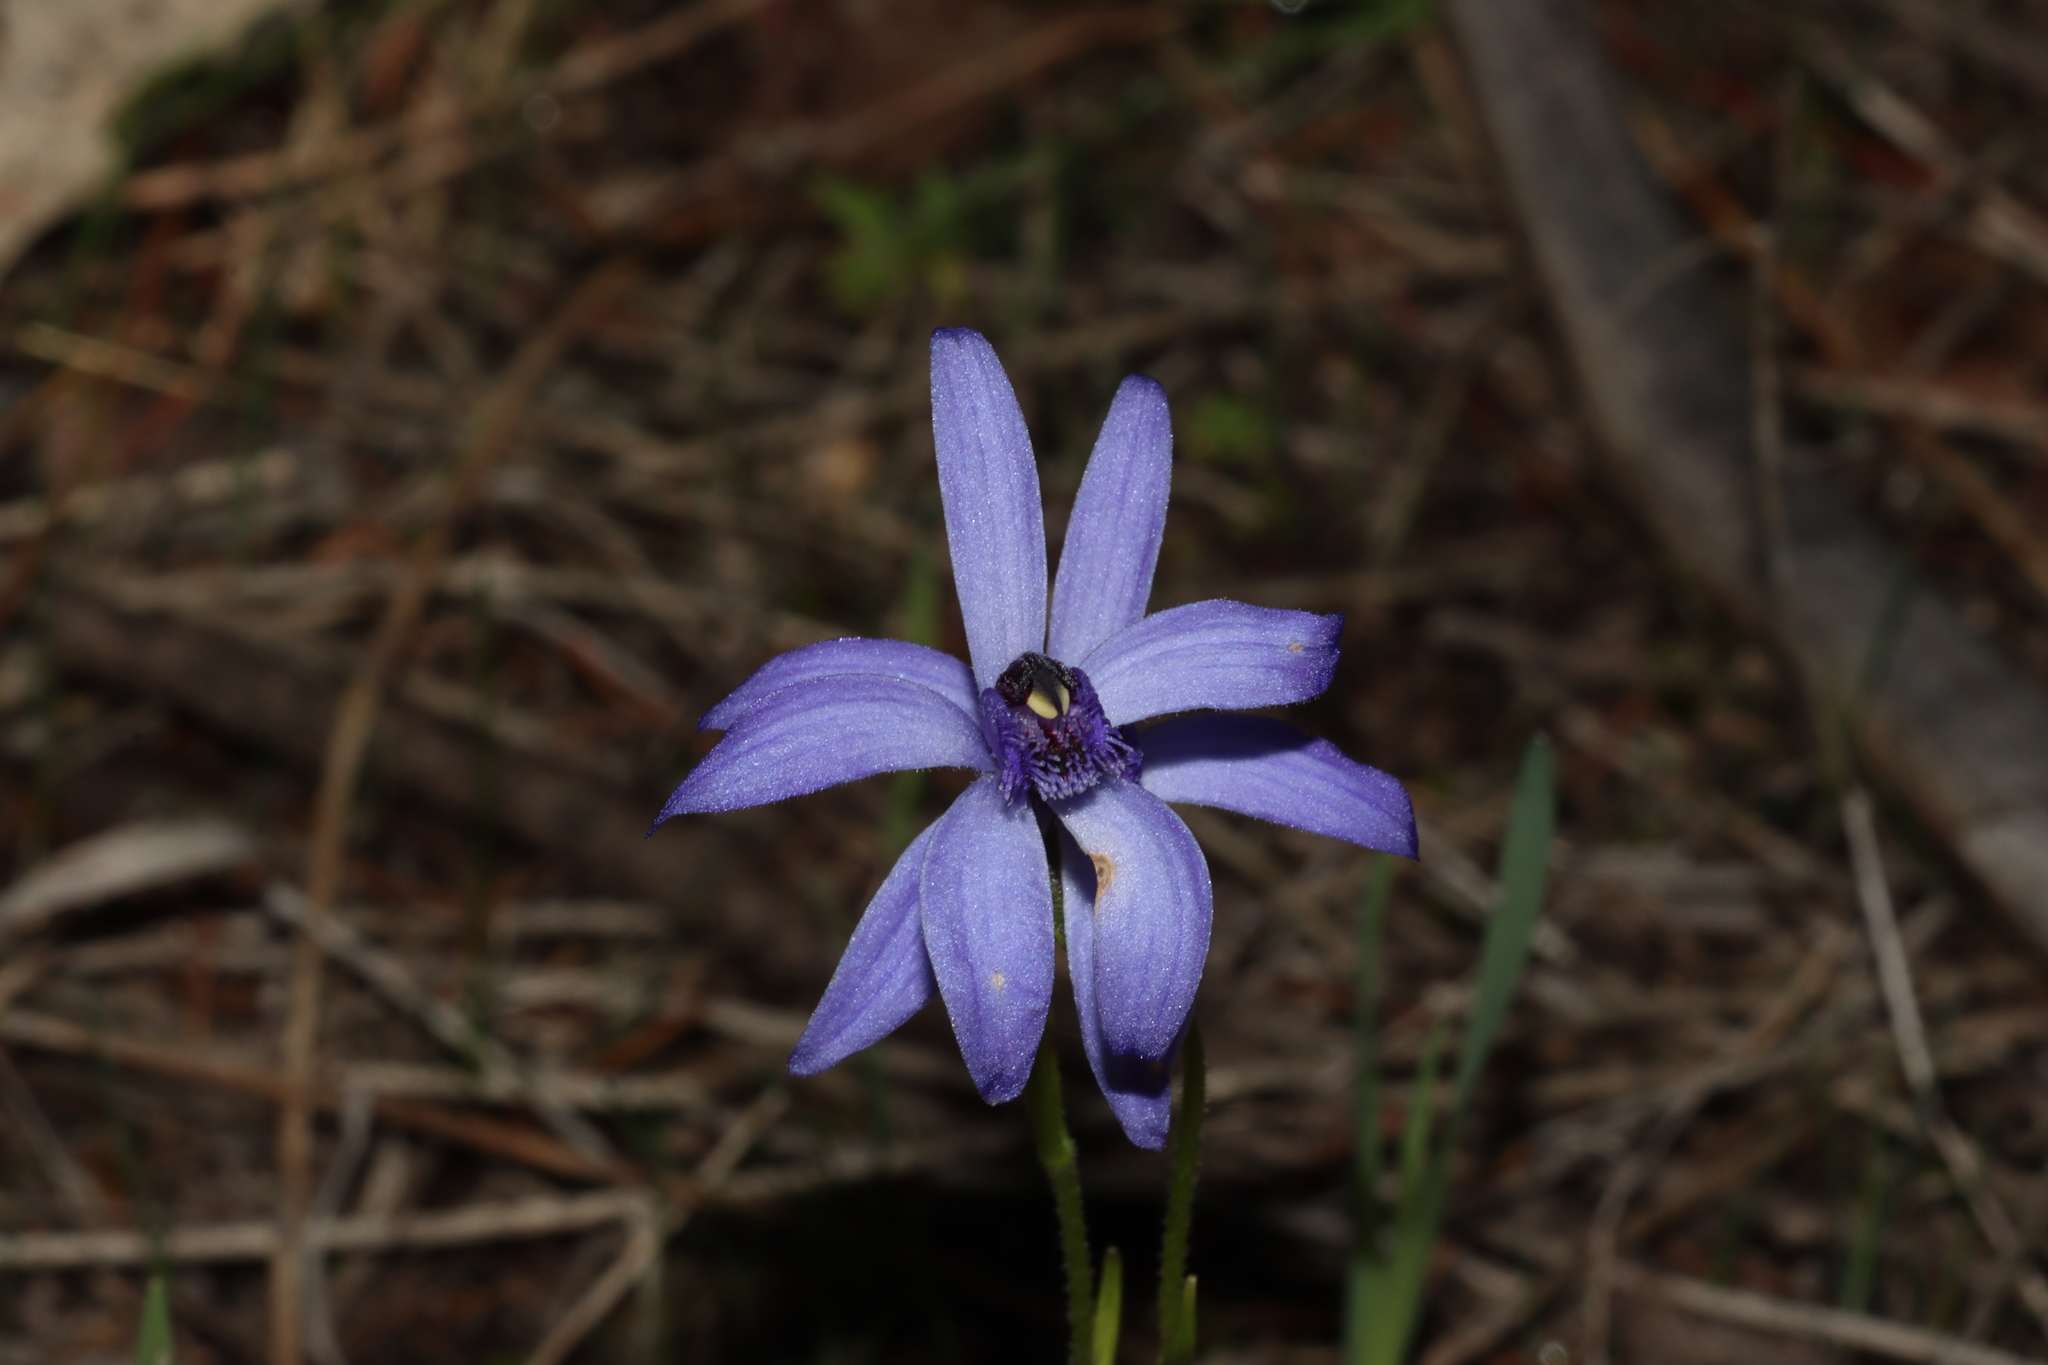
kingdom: Plantae
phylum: Tracheophyta
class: Liliopsida
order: Asparagales
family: Orchidaceae
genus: Pheladenia
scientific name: Pheladenia deformis
